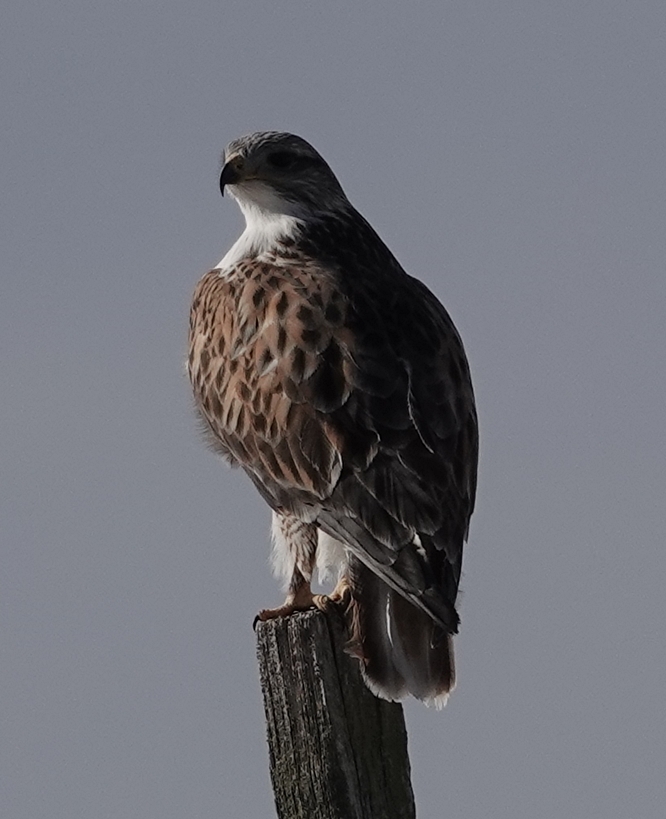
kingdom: Animalia
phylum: Chordata
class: Aves
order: Accipitriformes
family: Accipitridae
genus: Buteo
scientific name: Buteo regalis
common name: Ferruginous hawk
